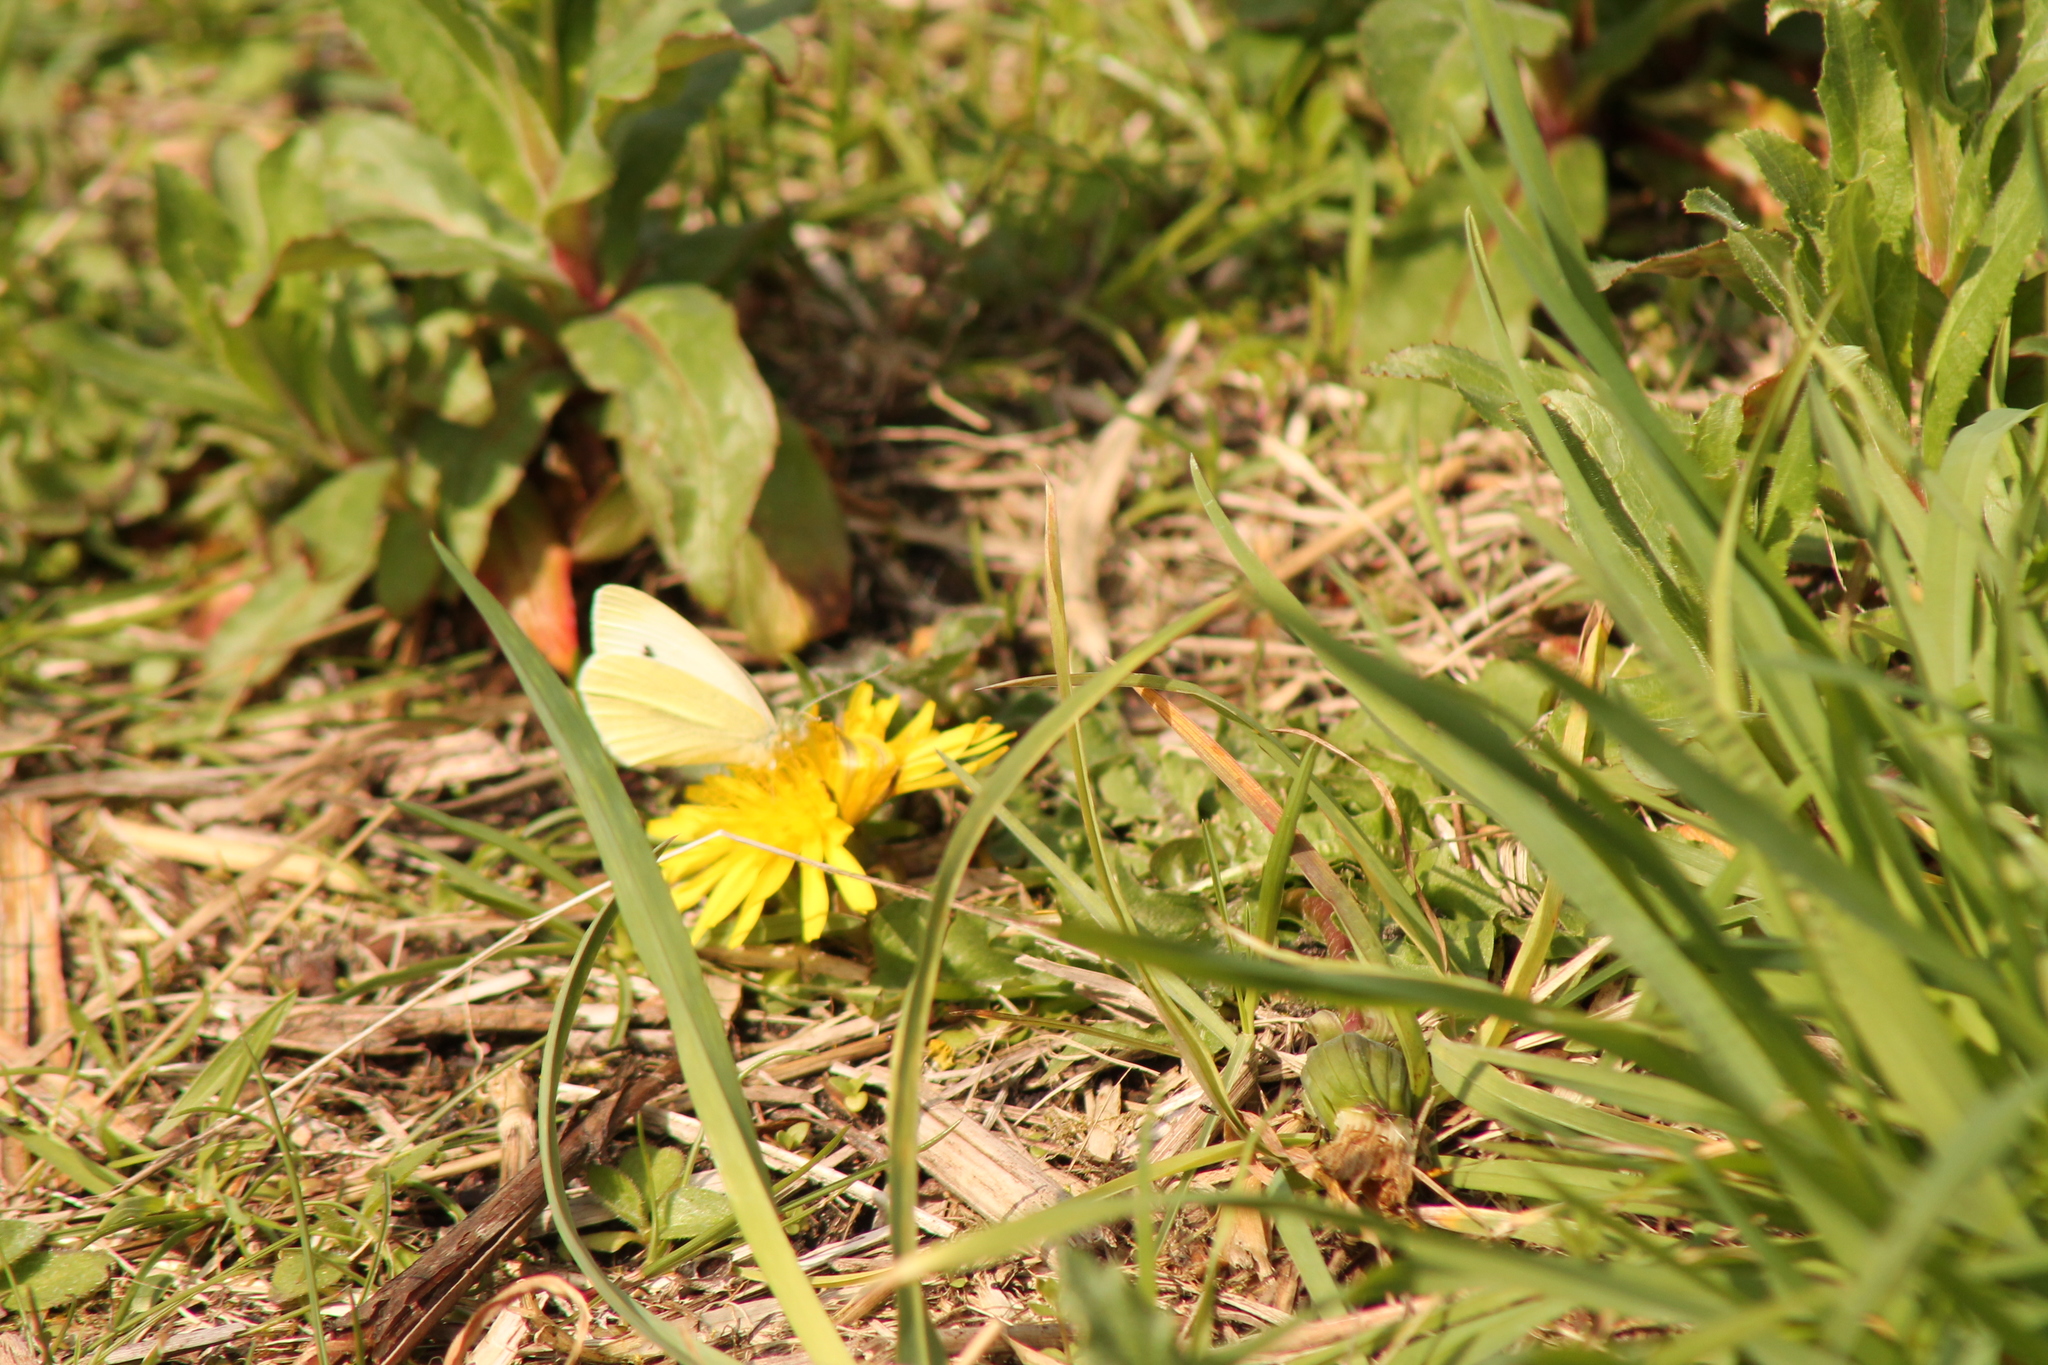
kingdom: Animalia
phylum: Arthropoda
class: Insecta
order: Lepidoptera
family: Pieridae
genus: Pieris
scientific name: Pieris
